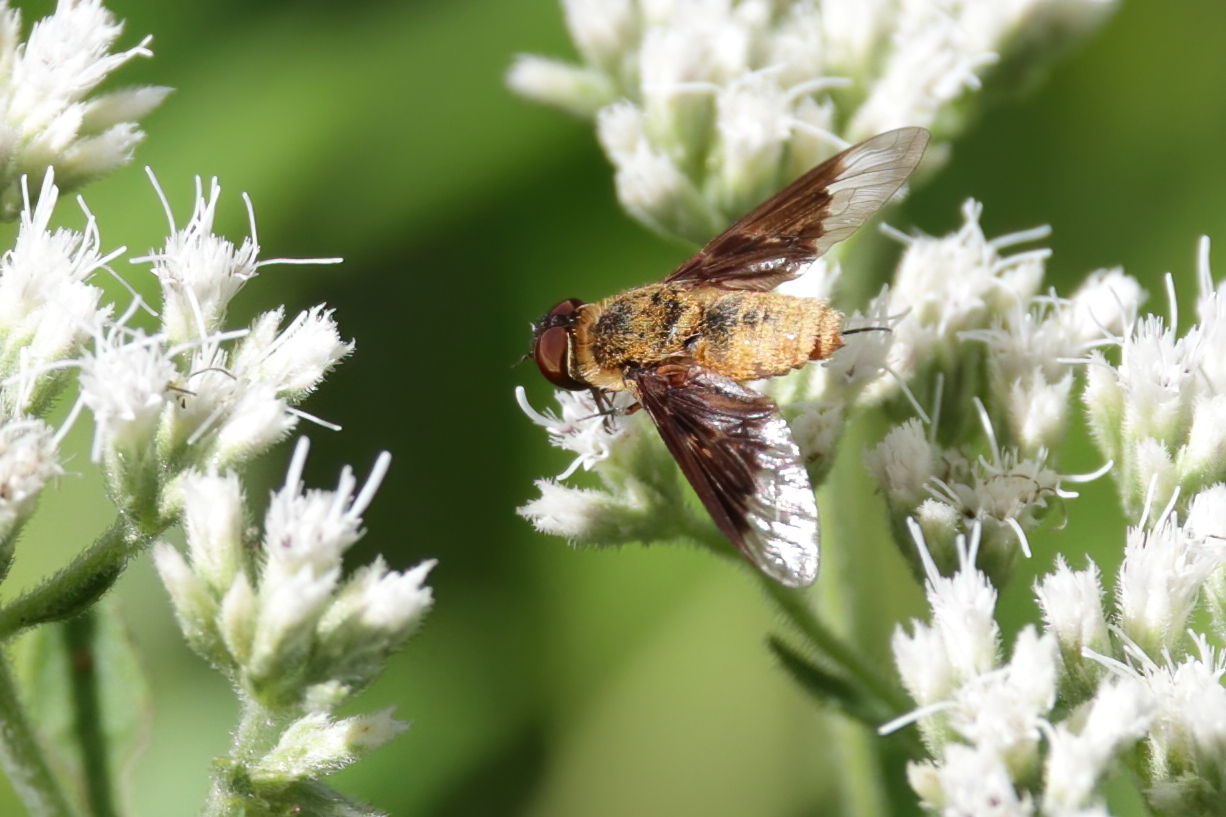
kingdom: Animalia
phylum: Arthropoda
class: Insecta
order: Diptera
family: Bombyliidae
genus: Chrysanthrax
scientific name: Chrysanthrax cypris
